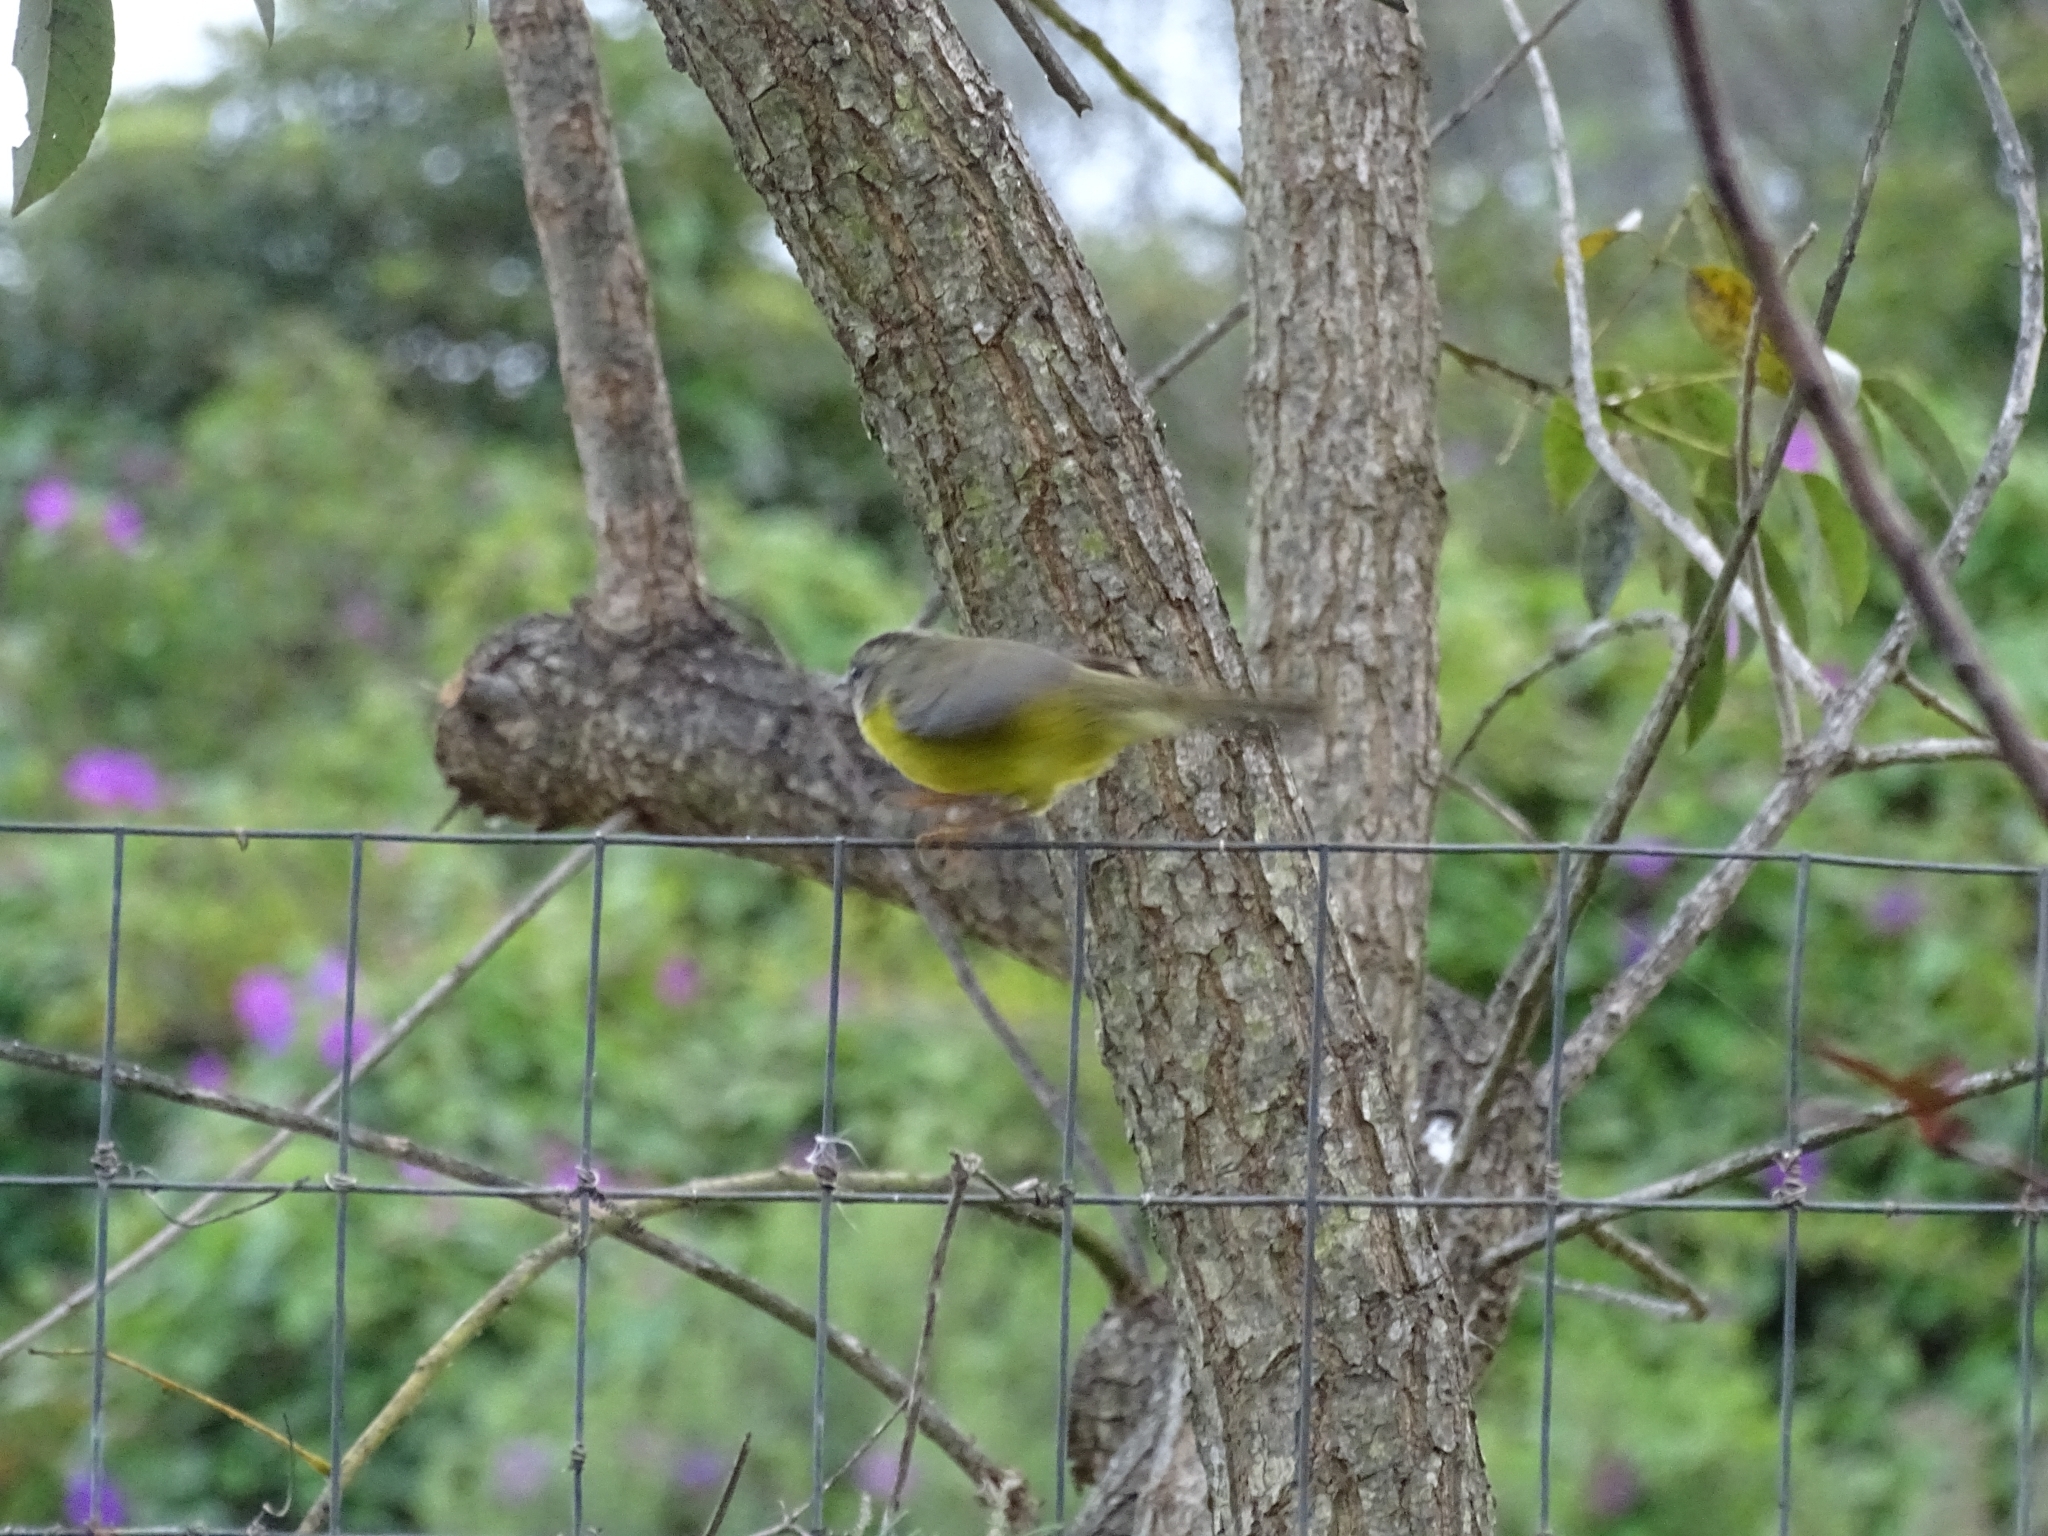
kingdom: Animalia
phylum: Chordata
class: Aves
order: Passeriformes
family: Parulidae
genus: Basileuterus
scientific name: Basileuterus culicivorus
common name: Golden-crowned warbler
